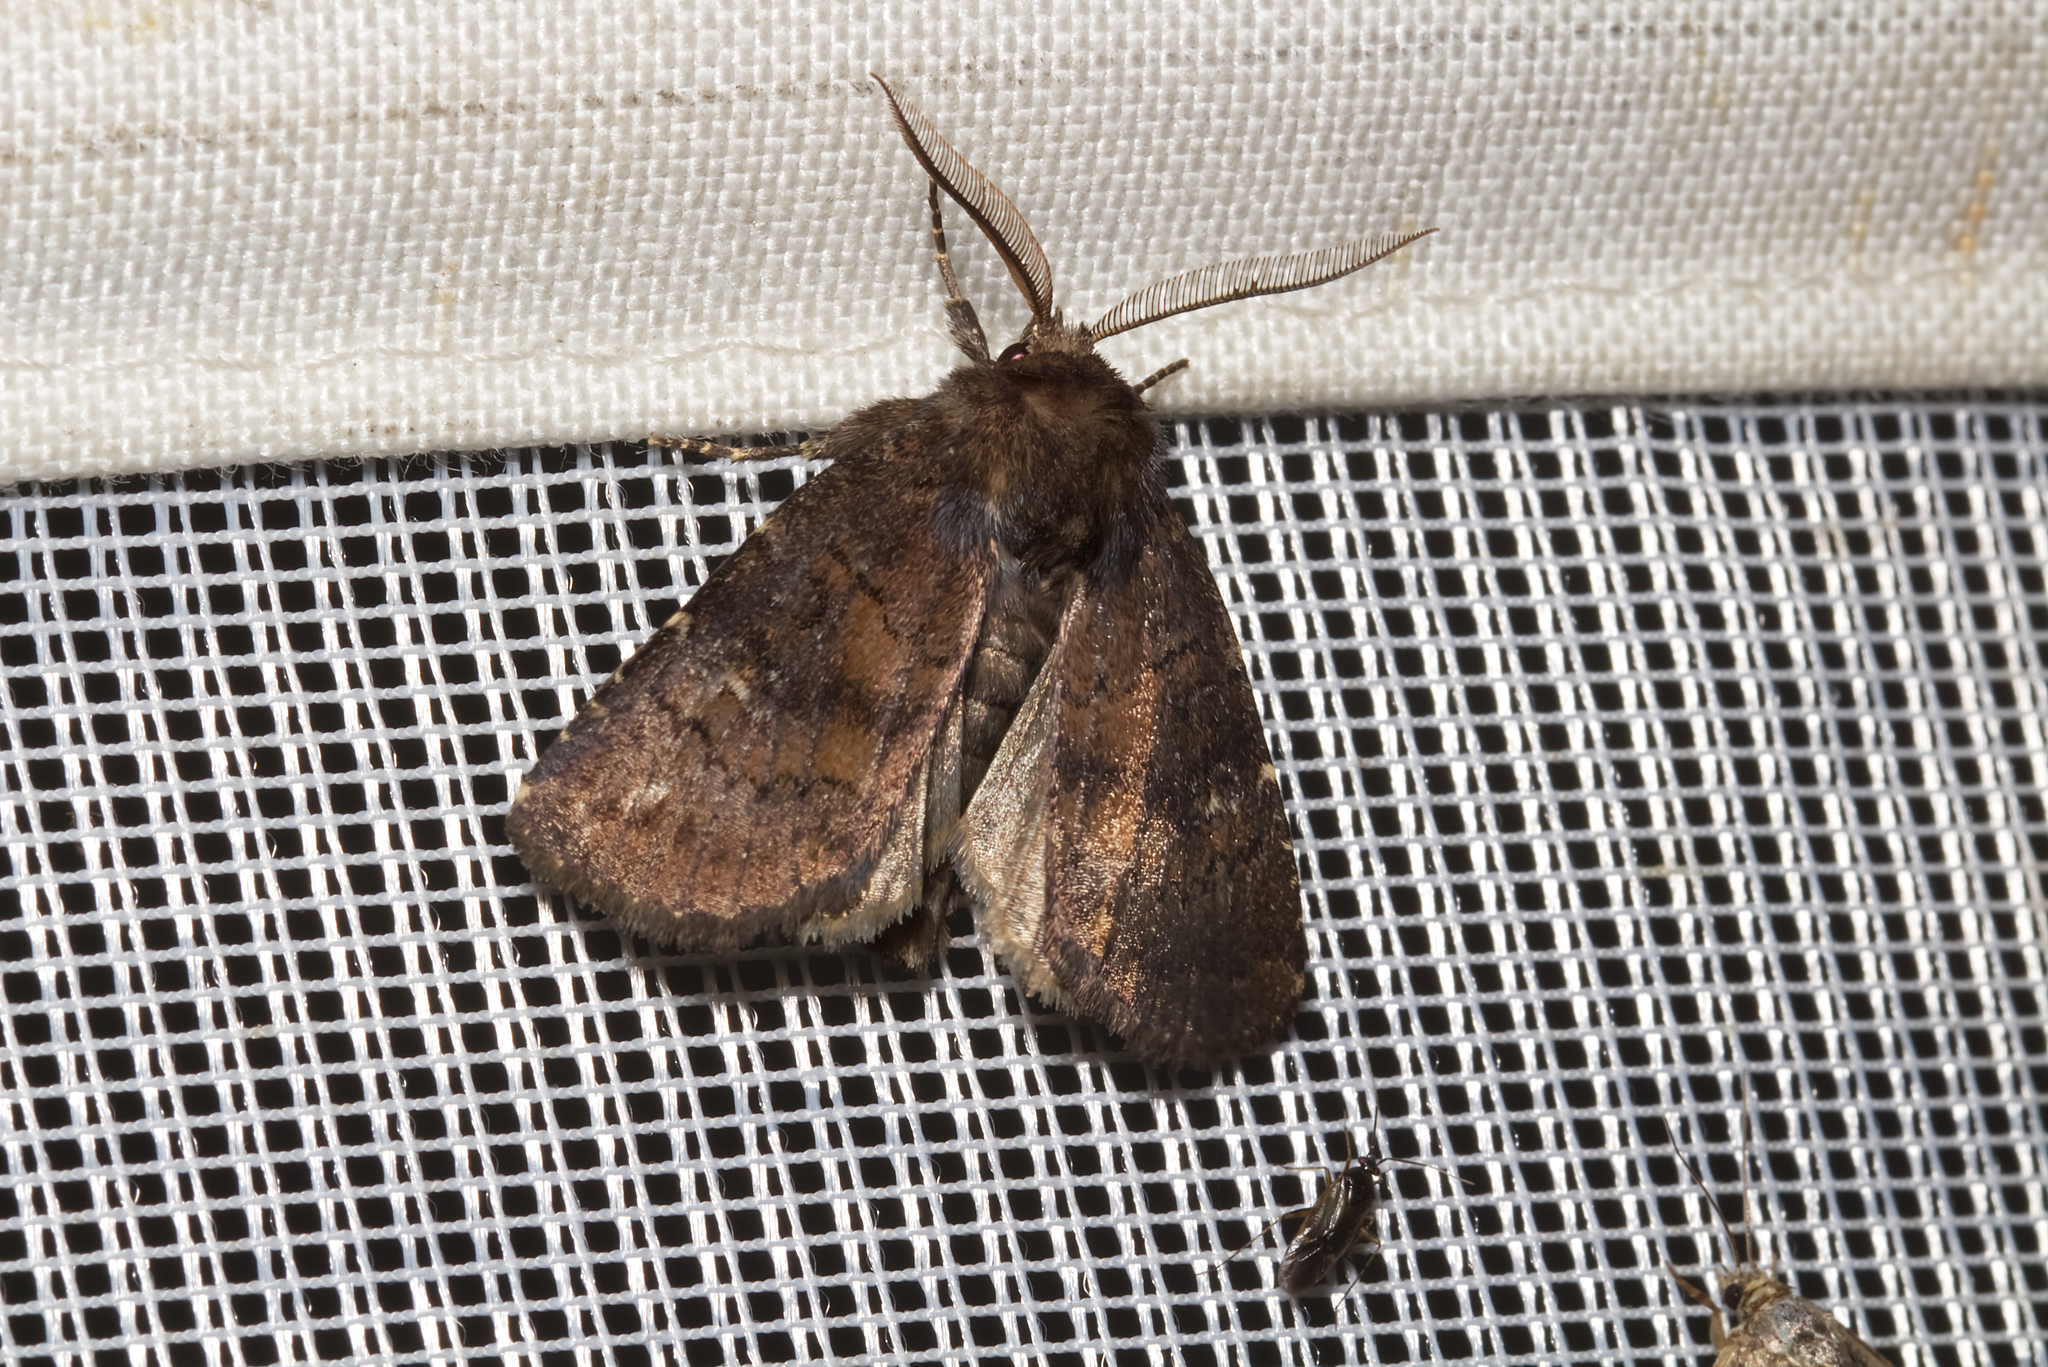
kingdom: Animalia
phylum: Arthropoda
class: Insecta
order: Lepidoptera
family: Noctuidae
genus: Charanyca
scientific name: Charanyca ferruginea
